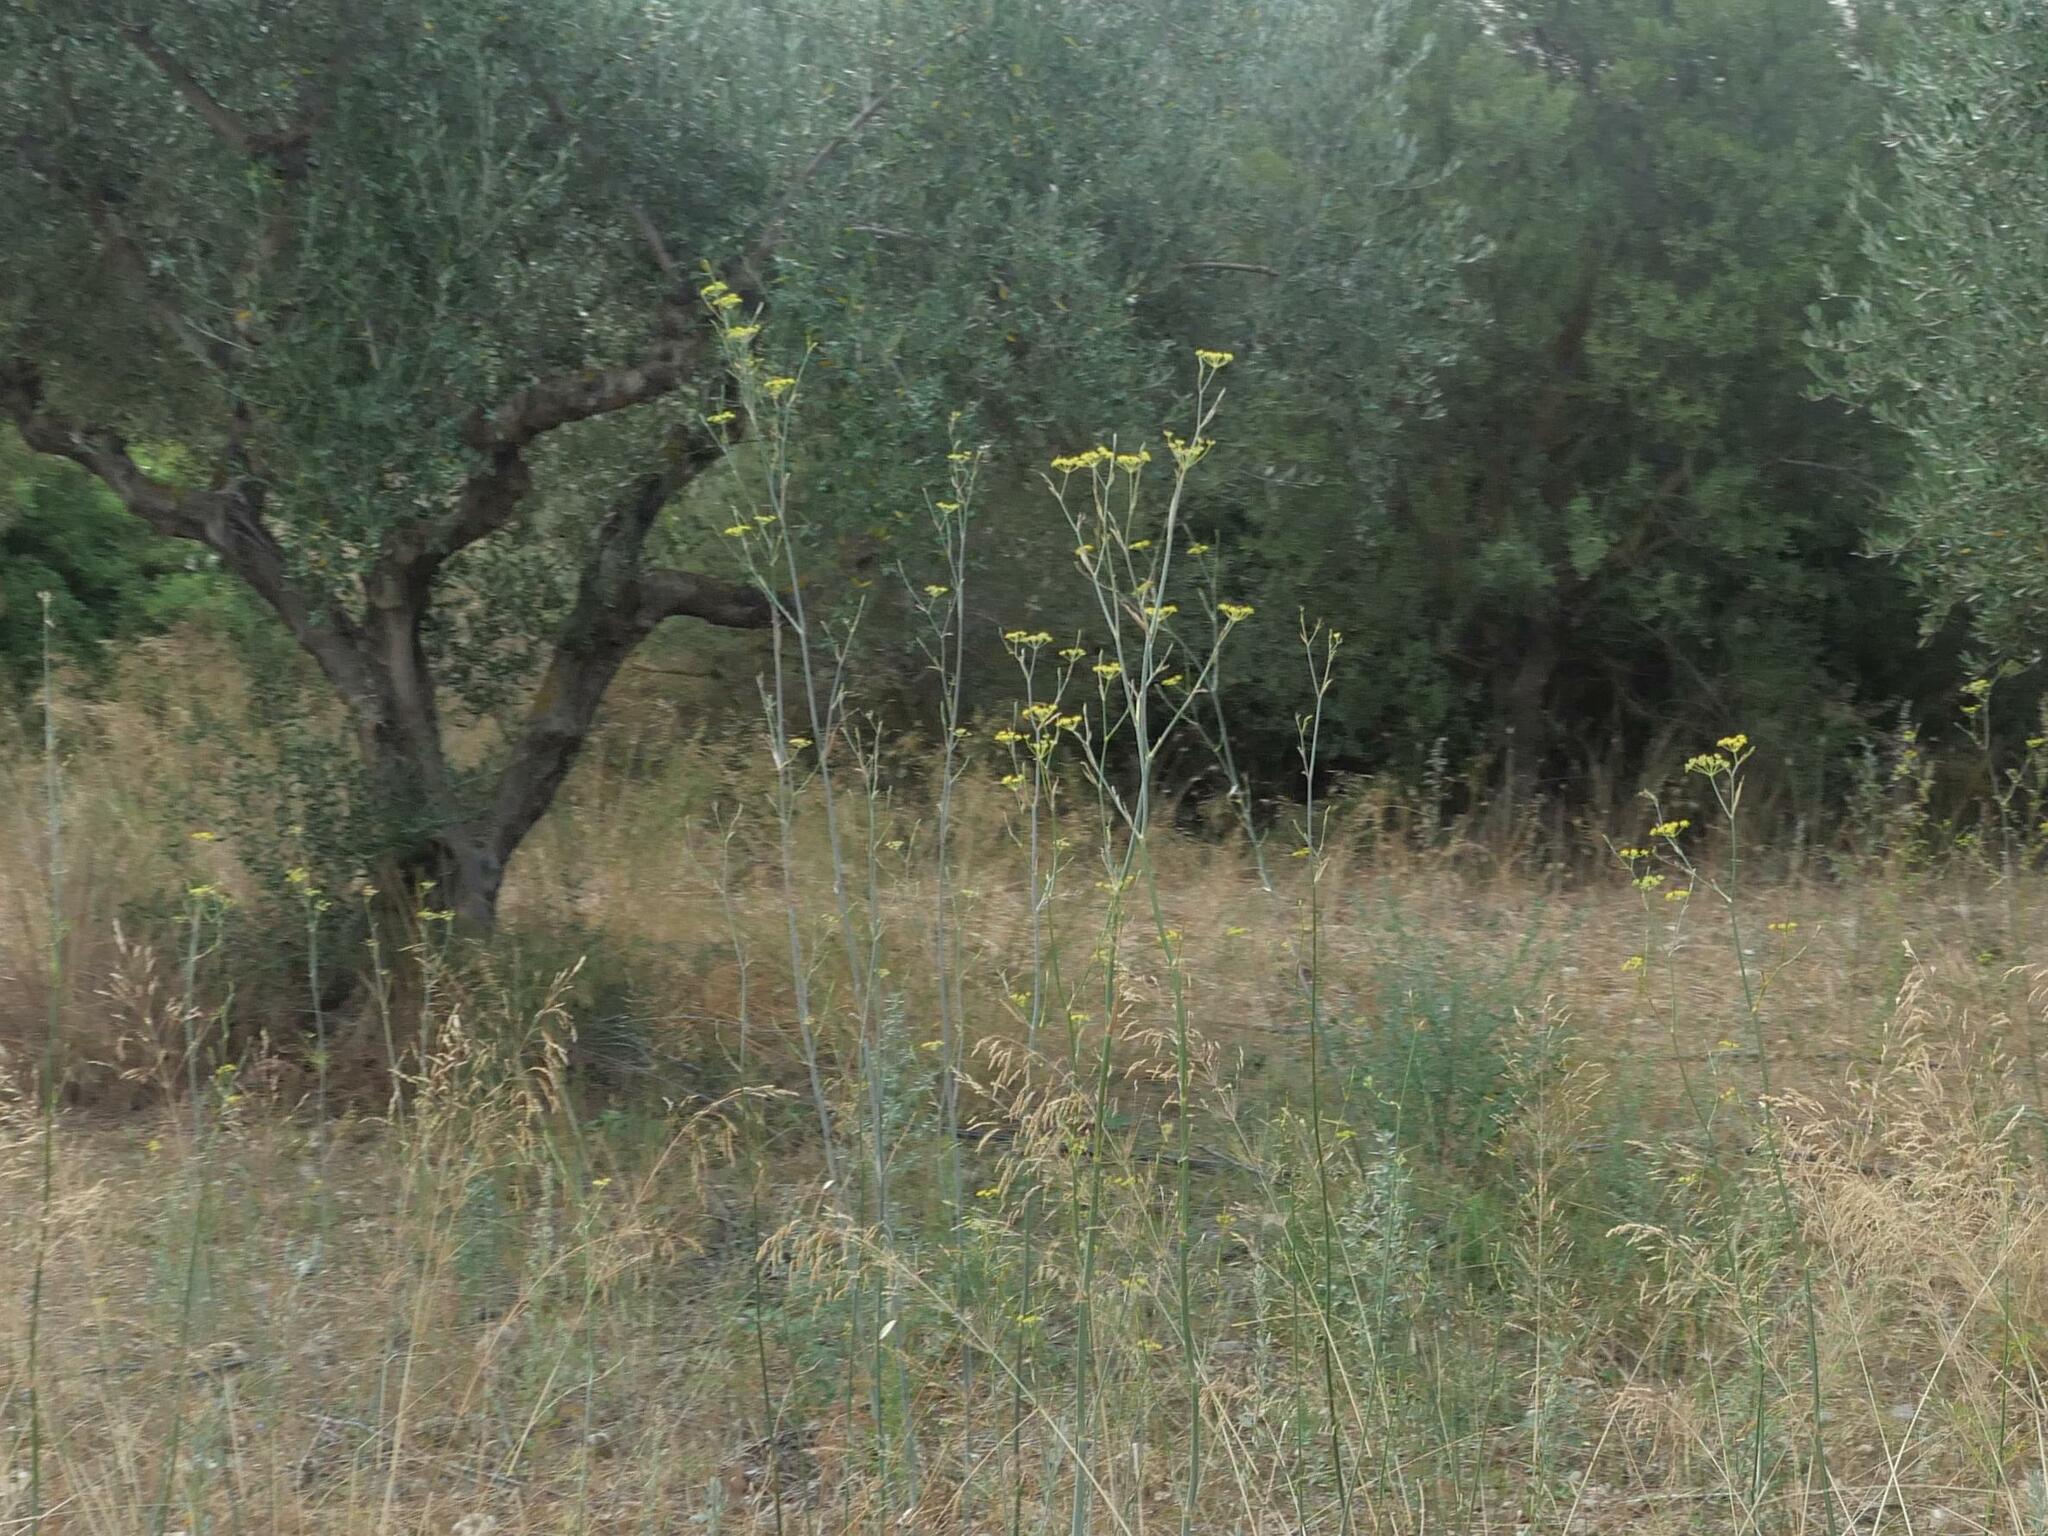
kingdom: Plantae
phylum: Tracheophyta
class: Magnoliopsida
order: Apiales
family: Apiaceae
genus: Foeniculum
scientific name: Foeniculum vulgare
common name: Fennel
